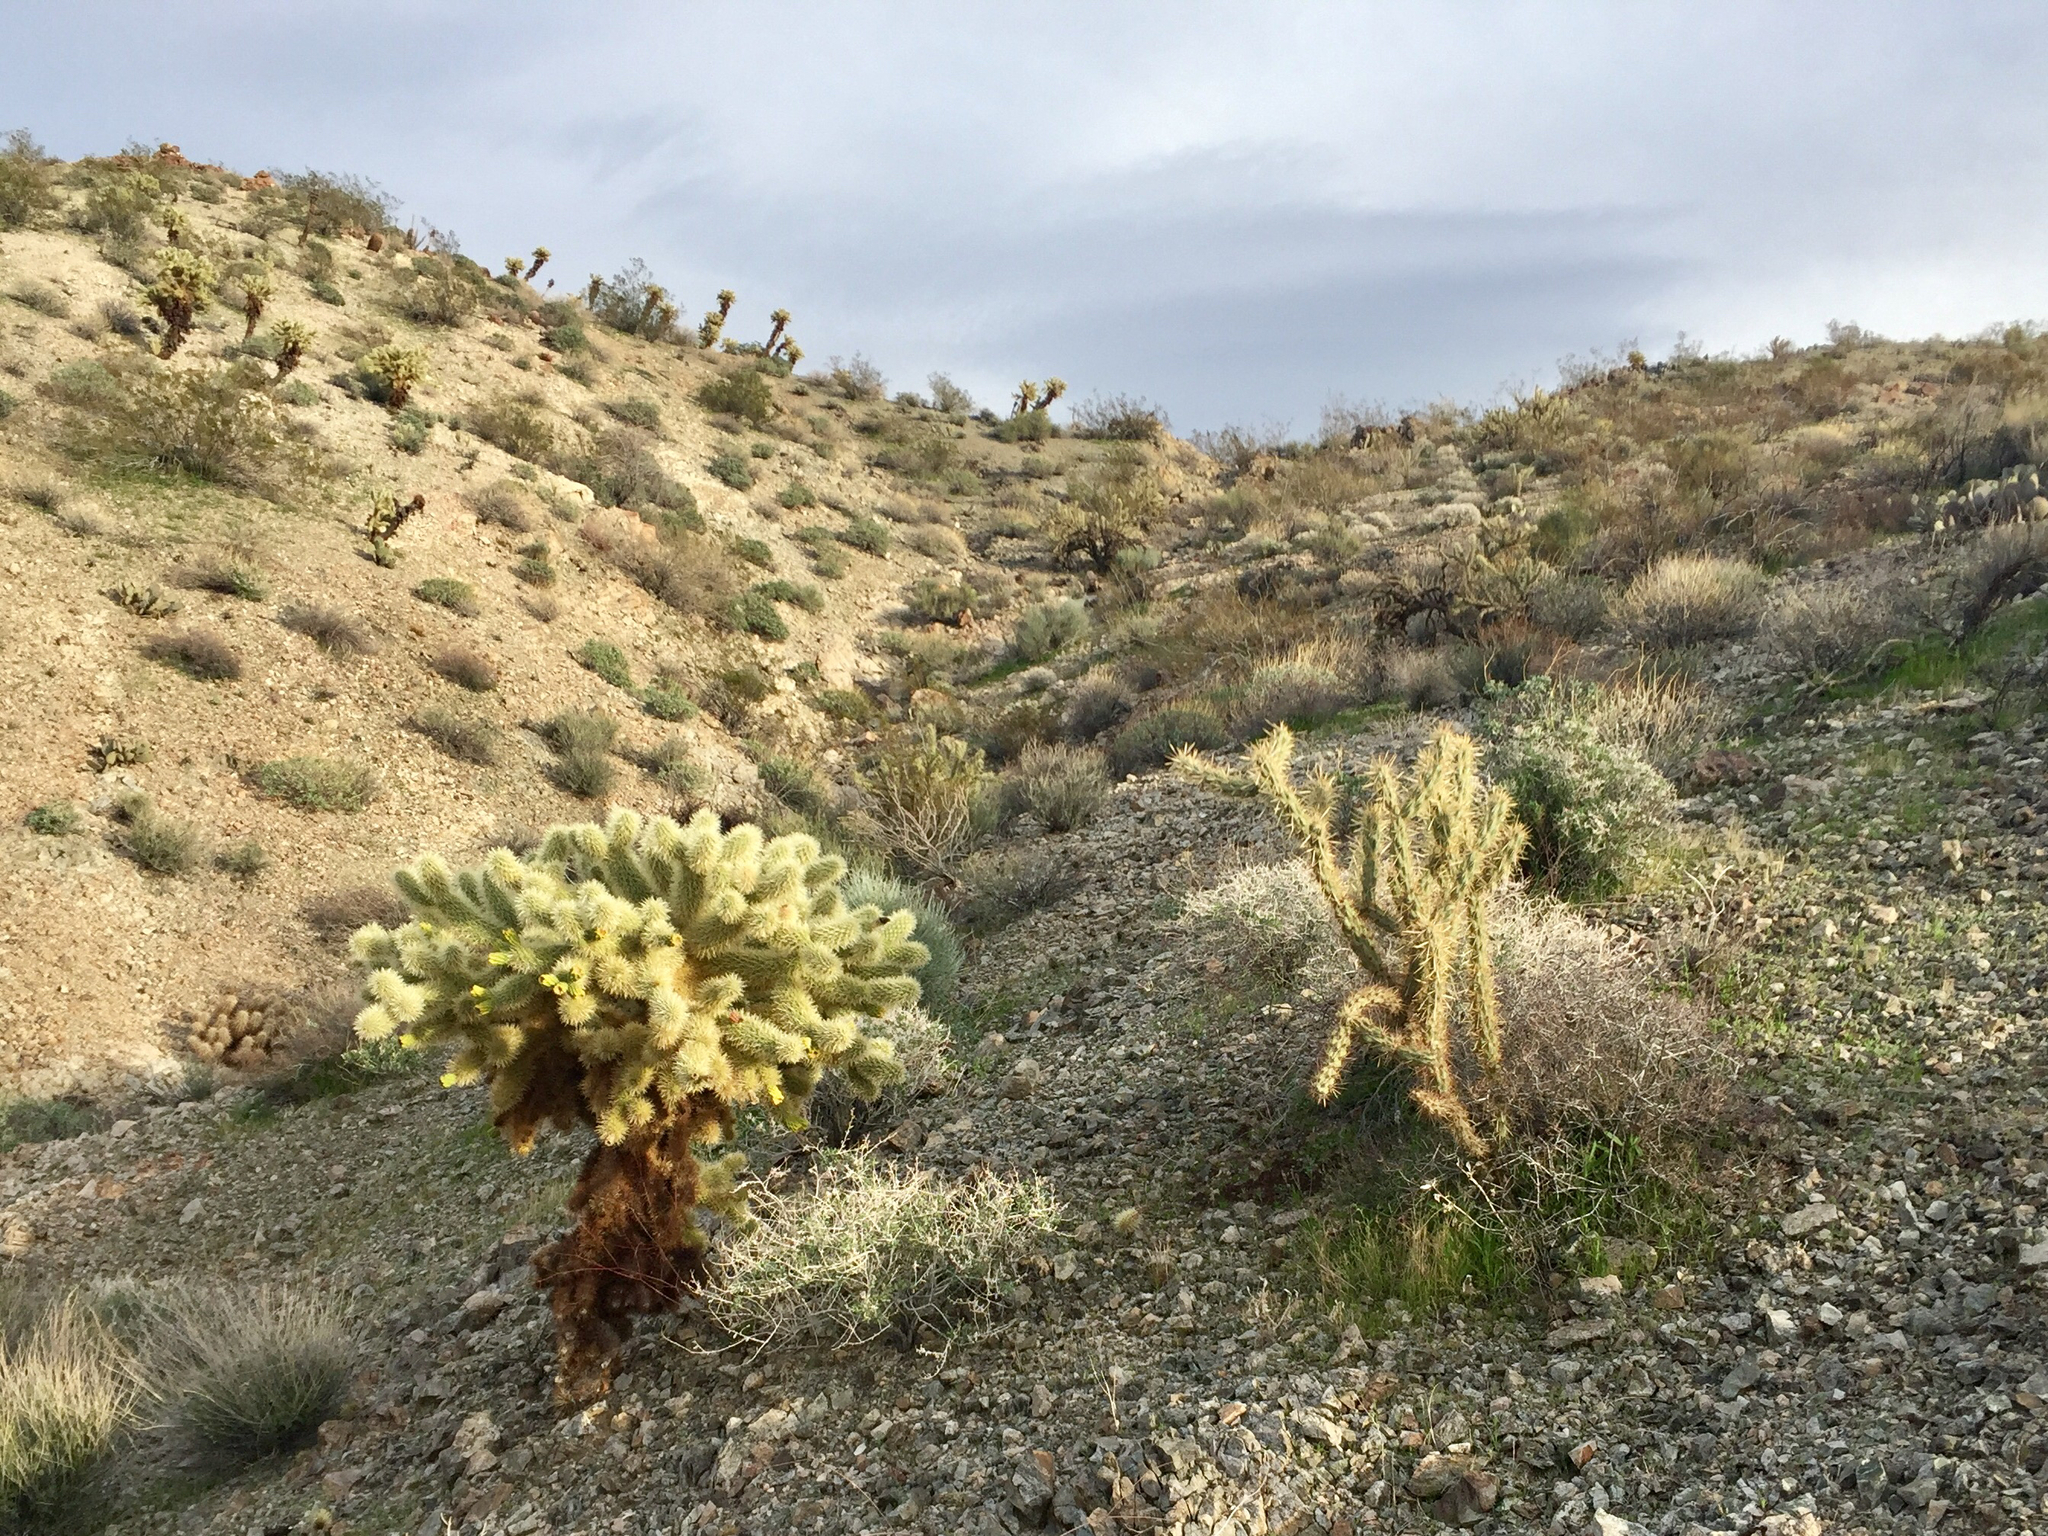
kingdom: Plantae
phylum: Tracheophyta
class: Magnoliopsida
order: Caryophyllales
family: Cactaceae
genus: Cylindropuntia
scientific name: Cylindropuntia fosbergii
